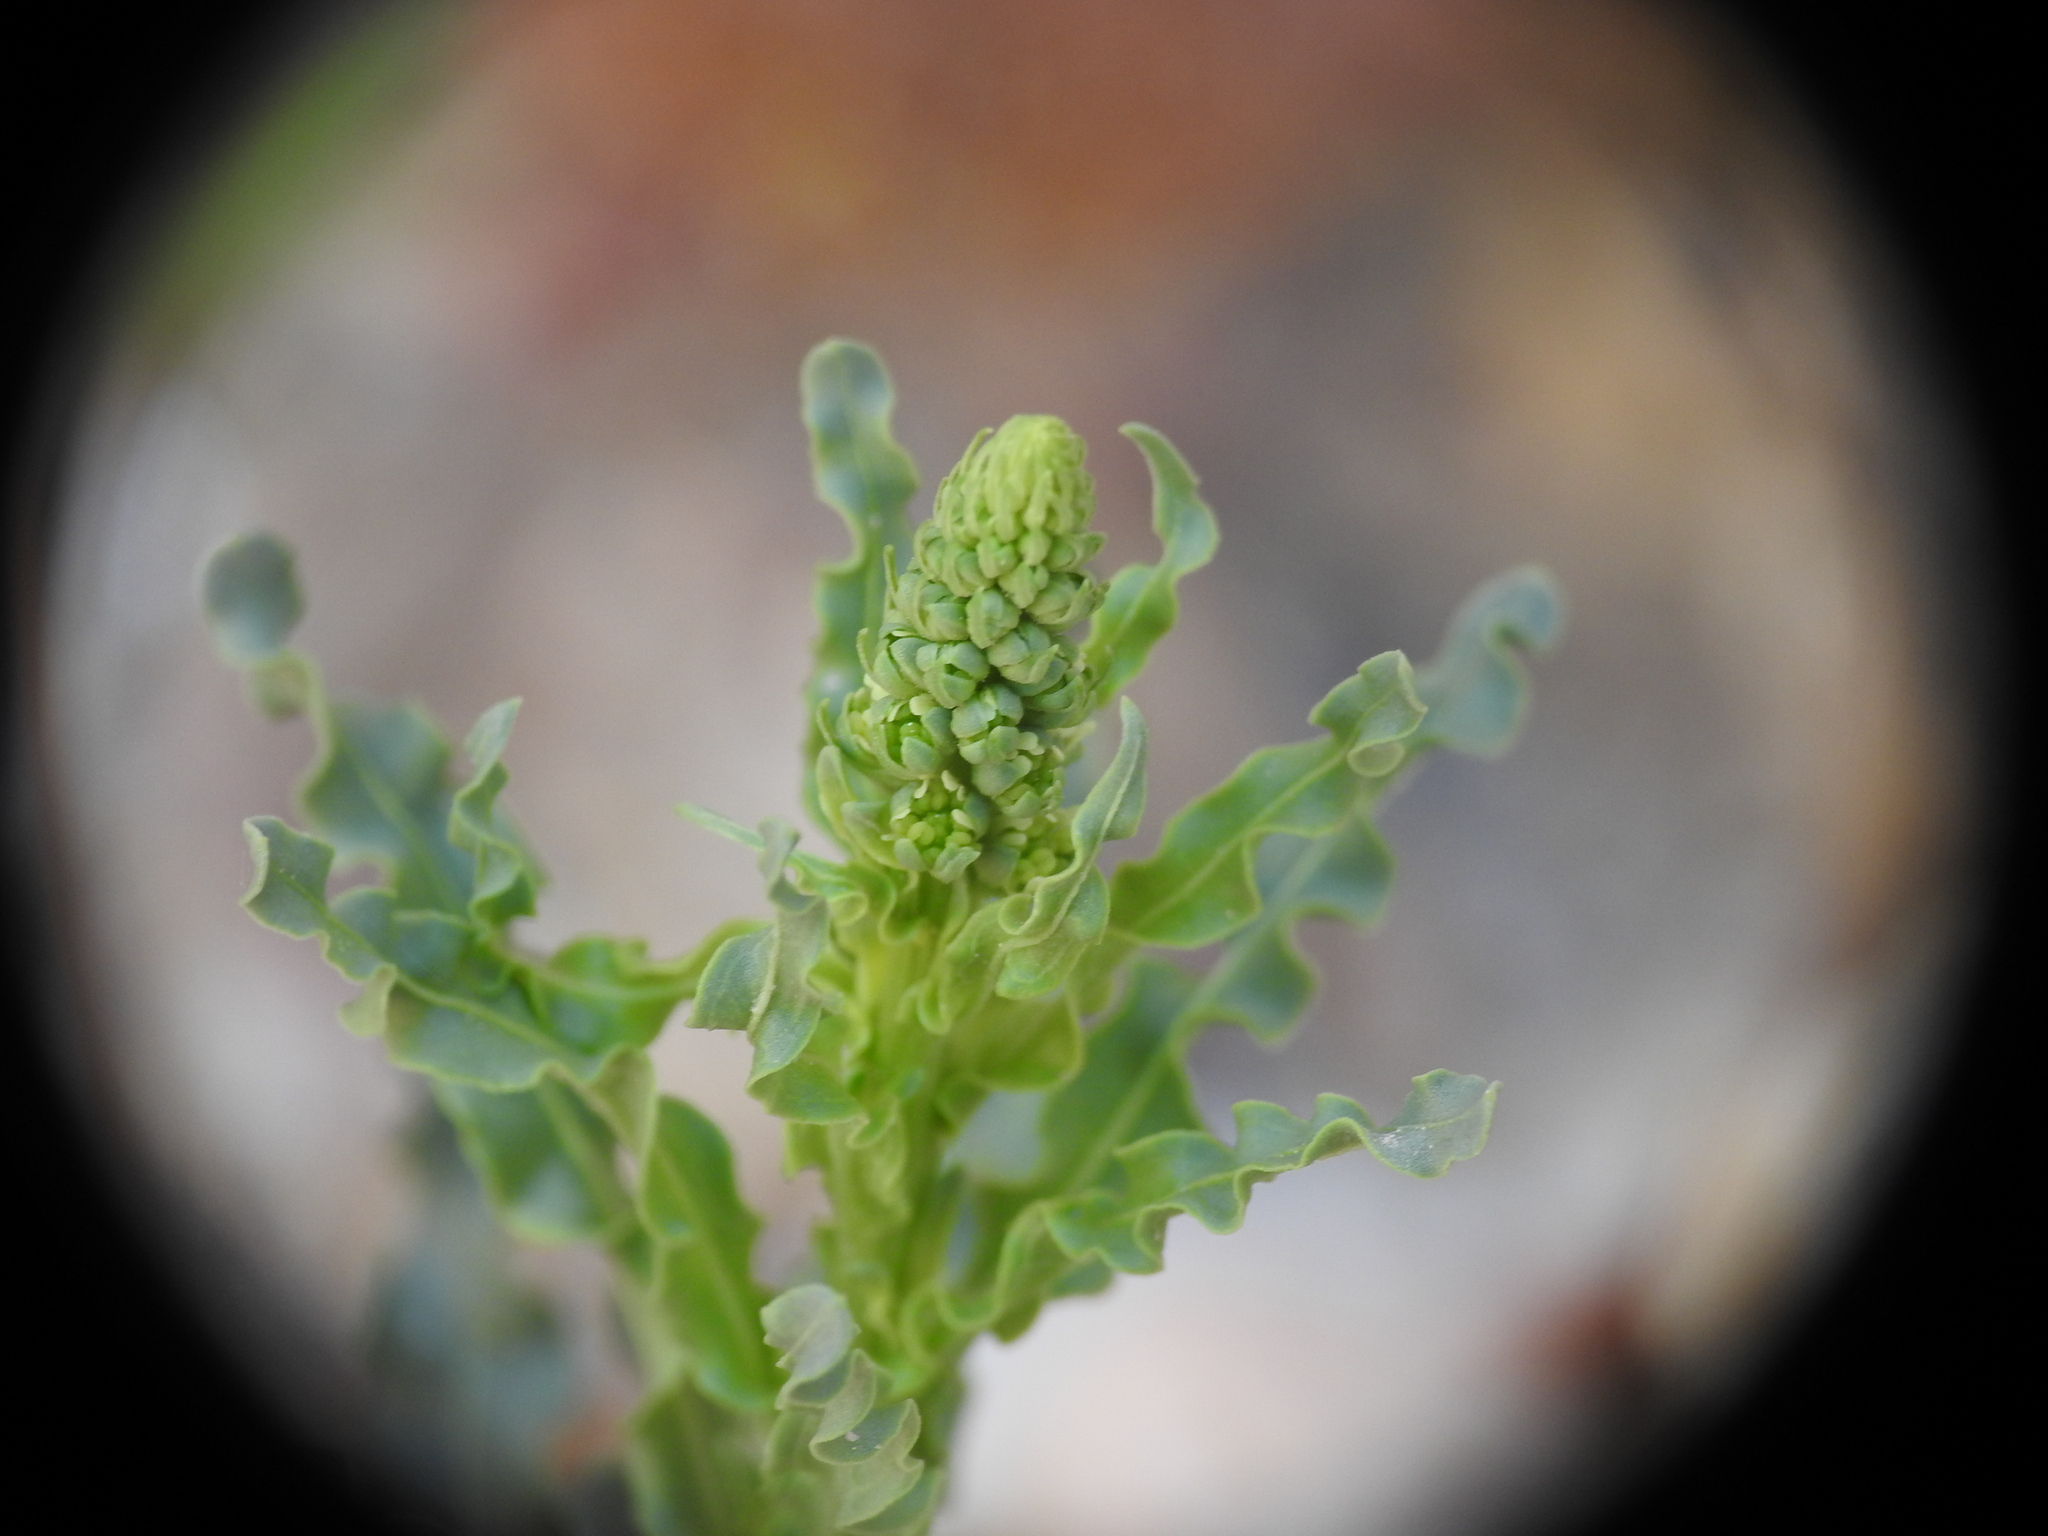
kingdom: Plantae
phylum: Tracheophyta
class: Magnoliopsida
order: Brassicales
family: Resedaceae
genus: Reseda
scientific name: Reseda alba
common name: White mignonette
